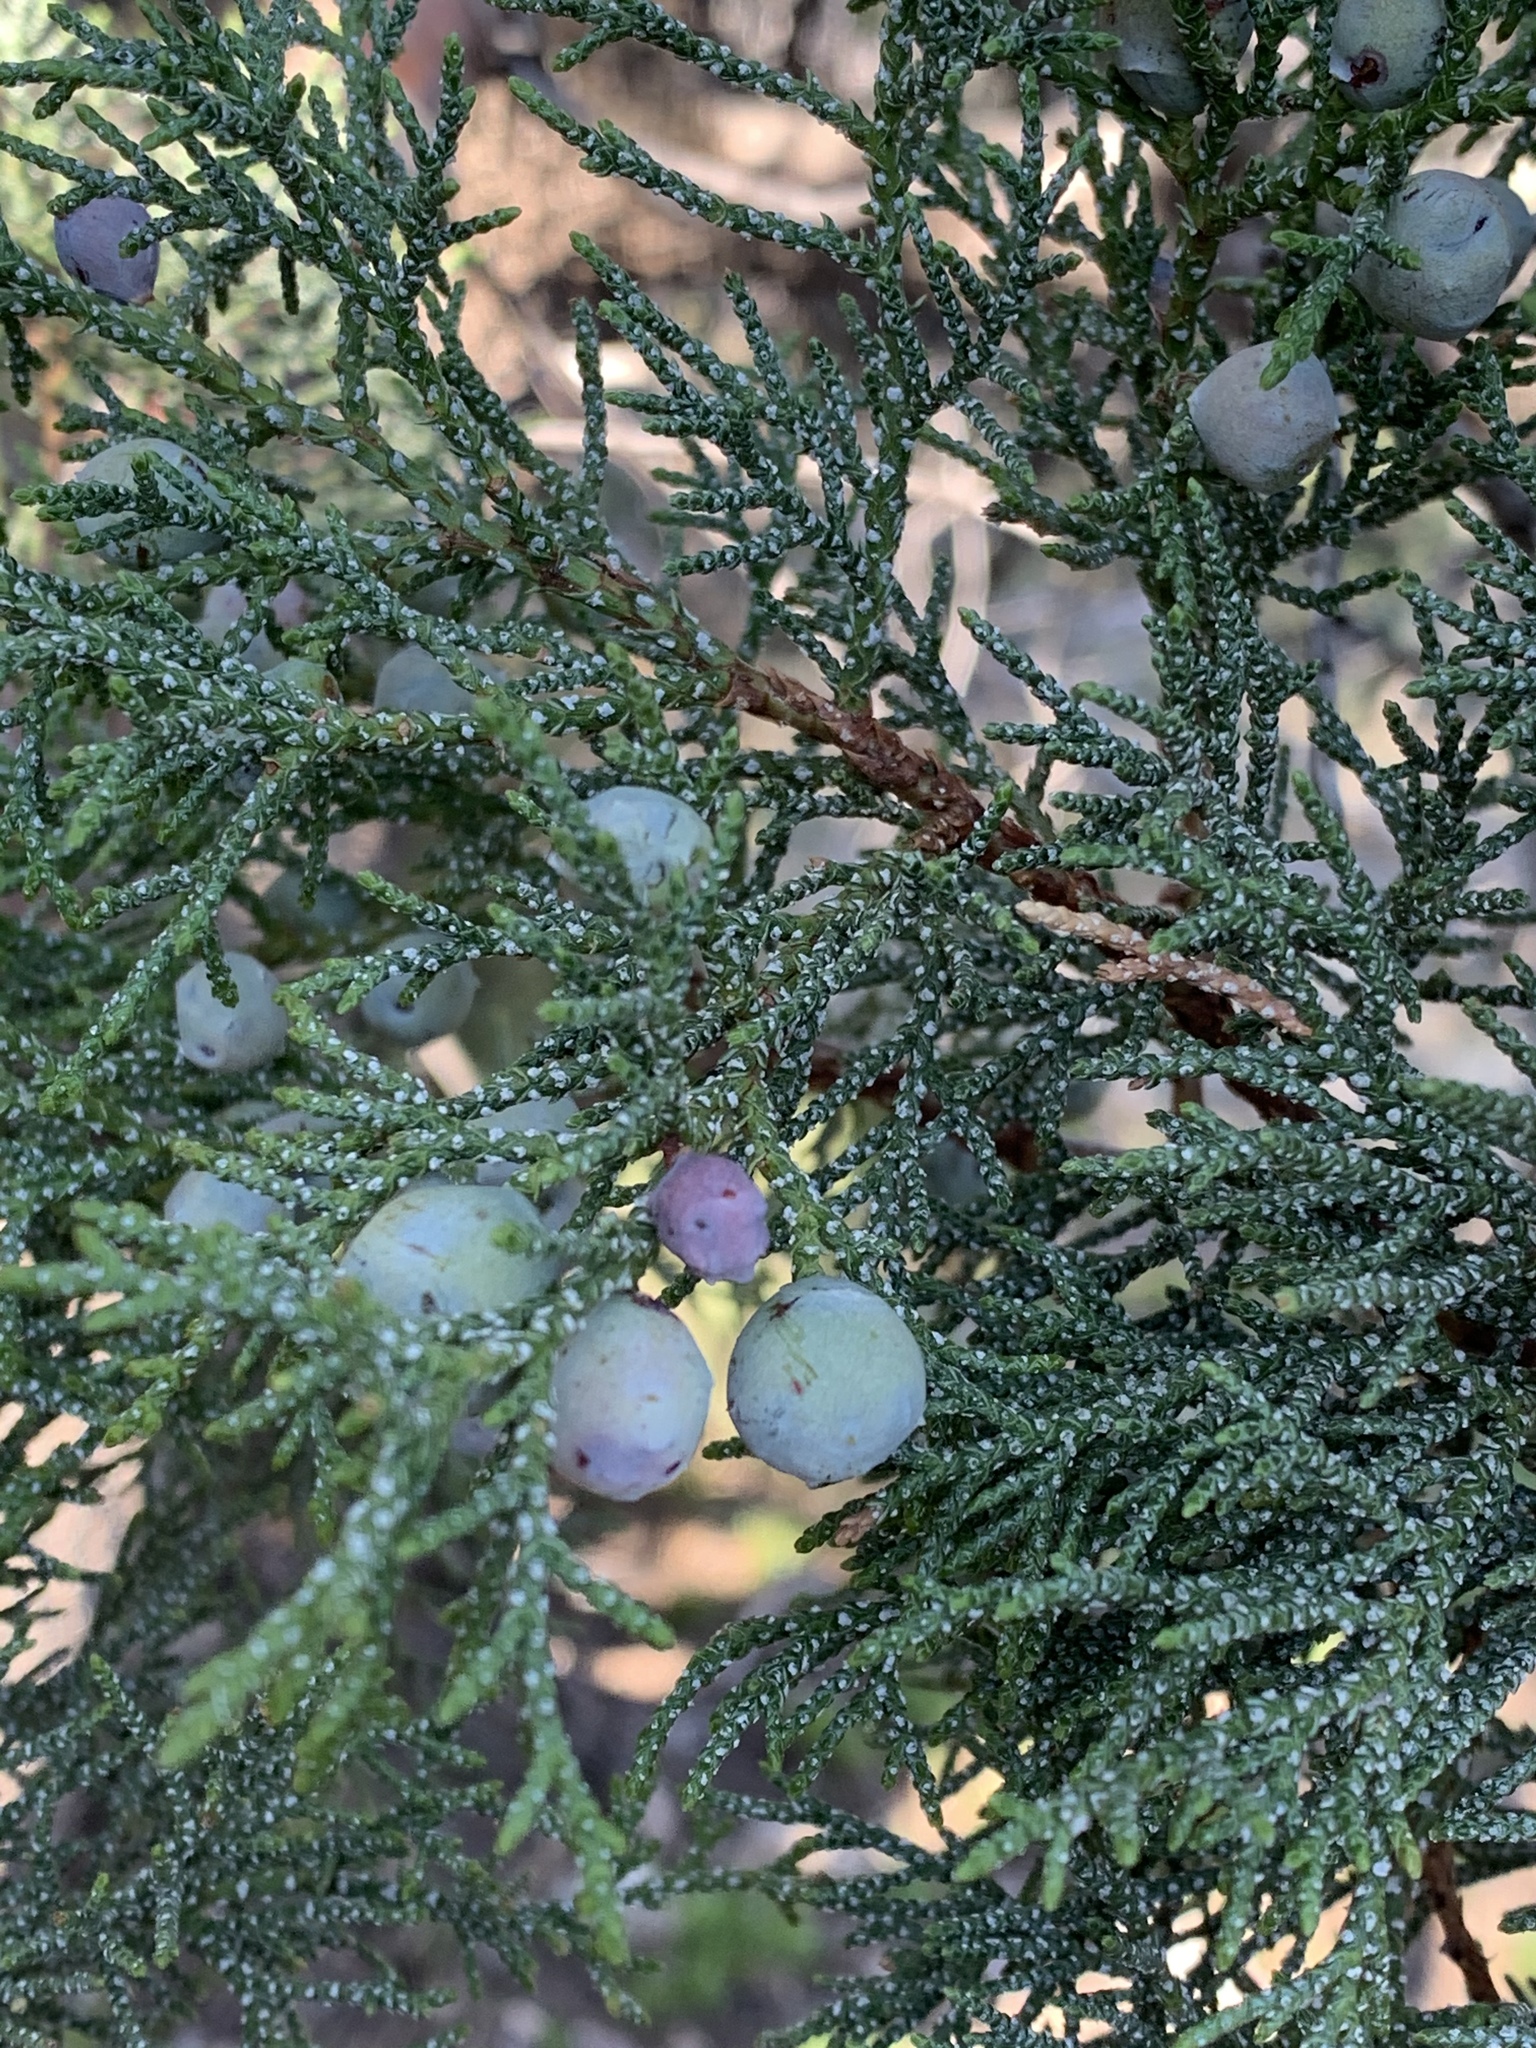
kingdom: Plantae
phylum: Tracheophyta
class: Pinopsida
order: Pinales
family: Cupressaceae
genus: Juniperus
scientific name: Juniperus deppeana
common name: Alligator juniper
